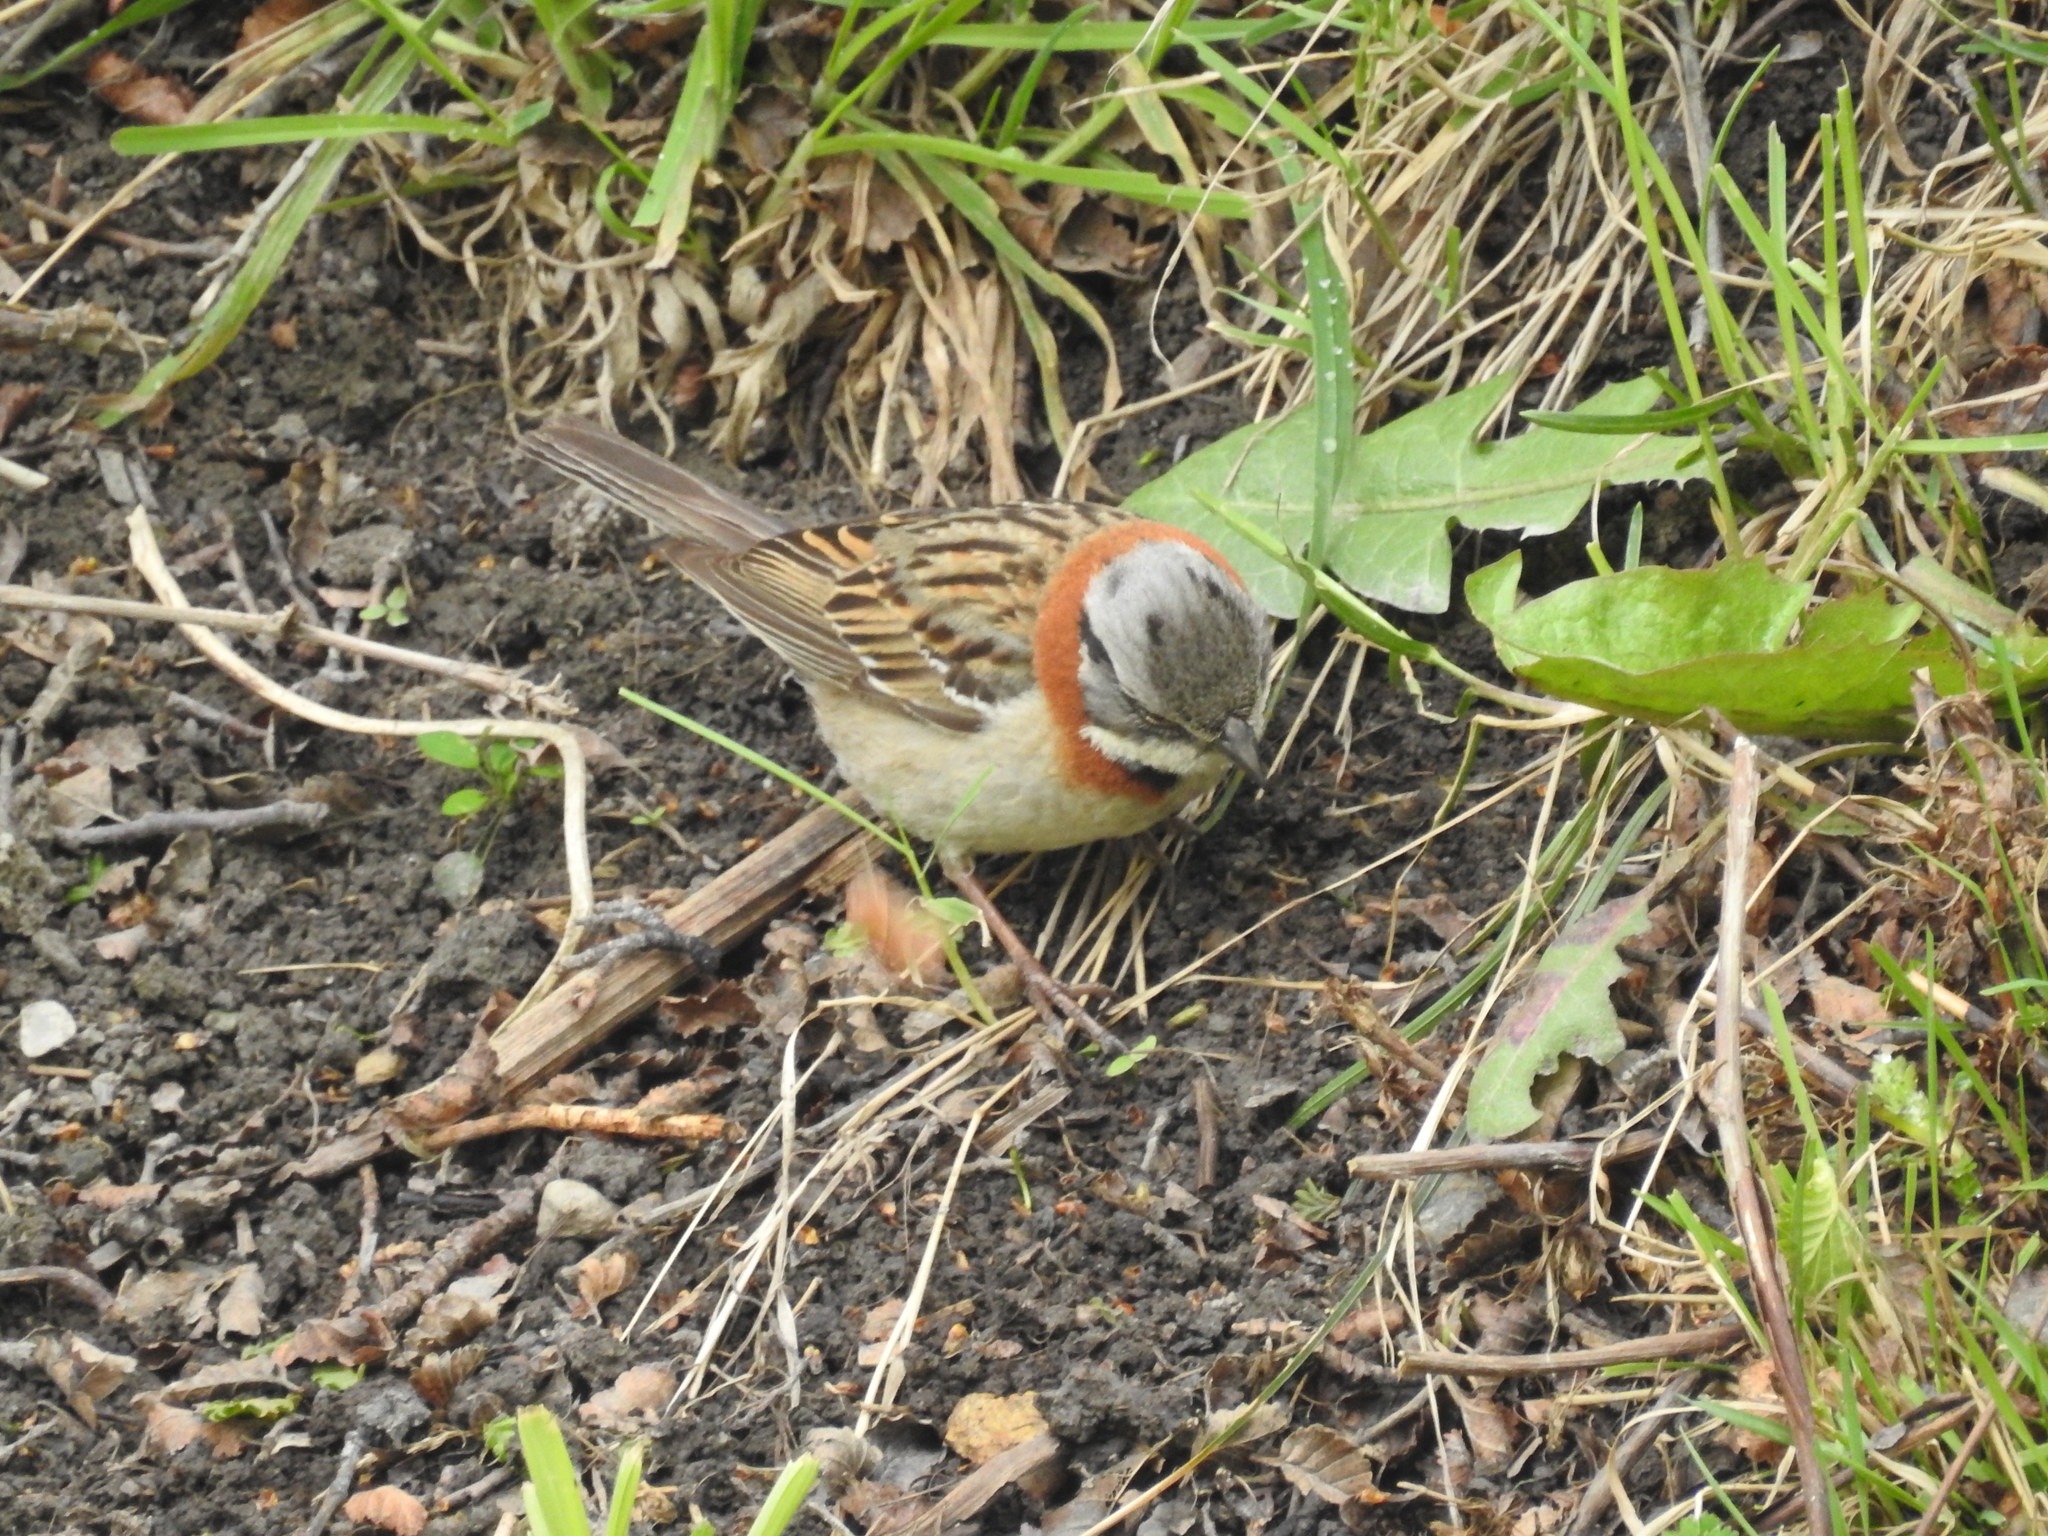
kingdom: Animalia
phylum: Chordata
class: Aves
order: Passeriformes
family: Passerellidae
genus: Zonotrichia
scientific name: Zonotrichia capensis
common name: Rufous-collared sparrow
